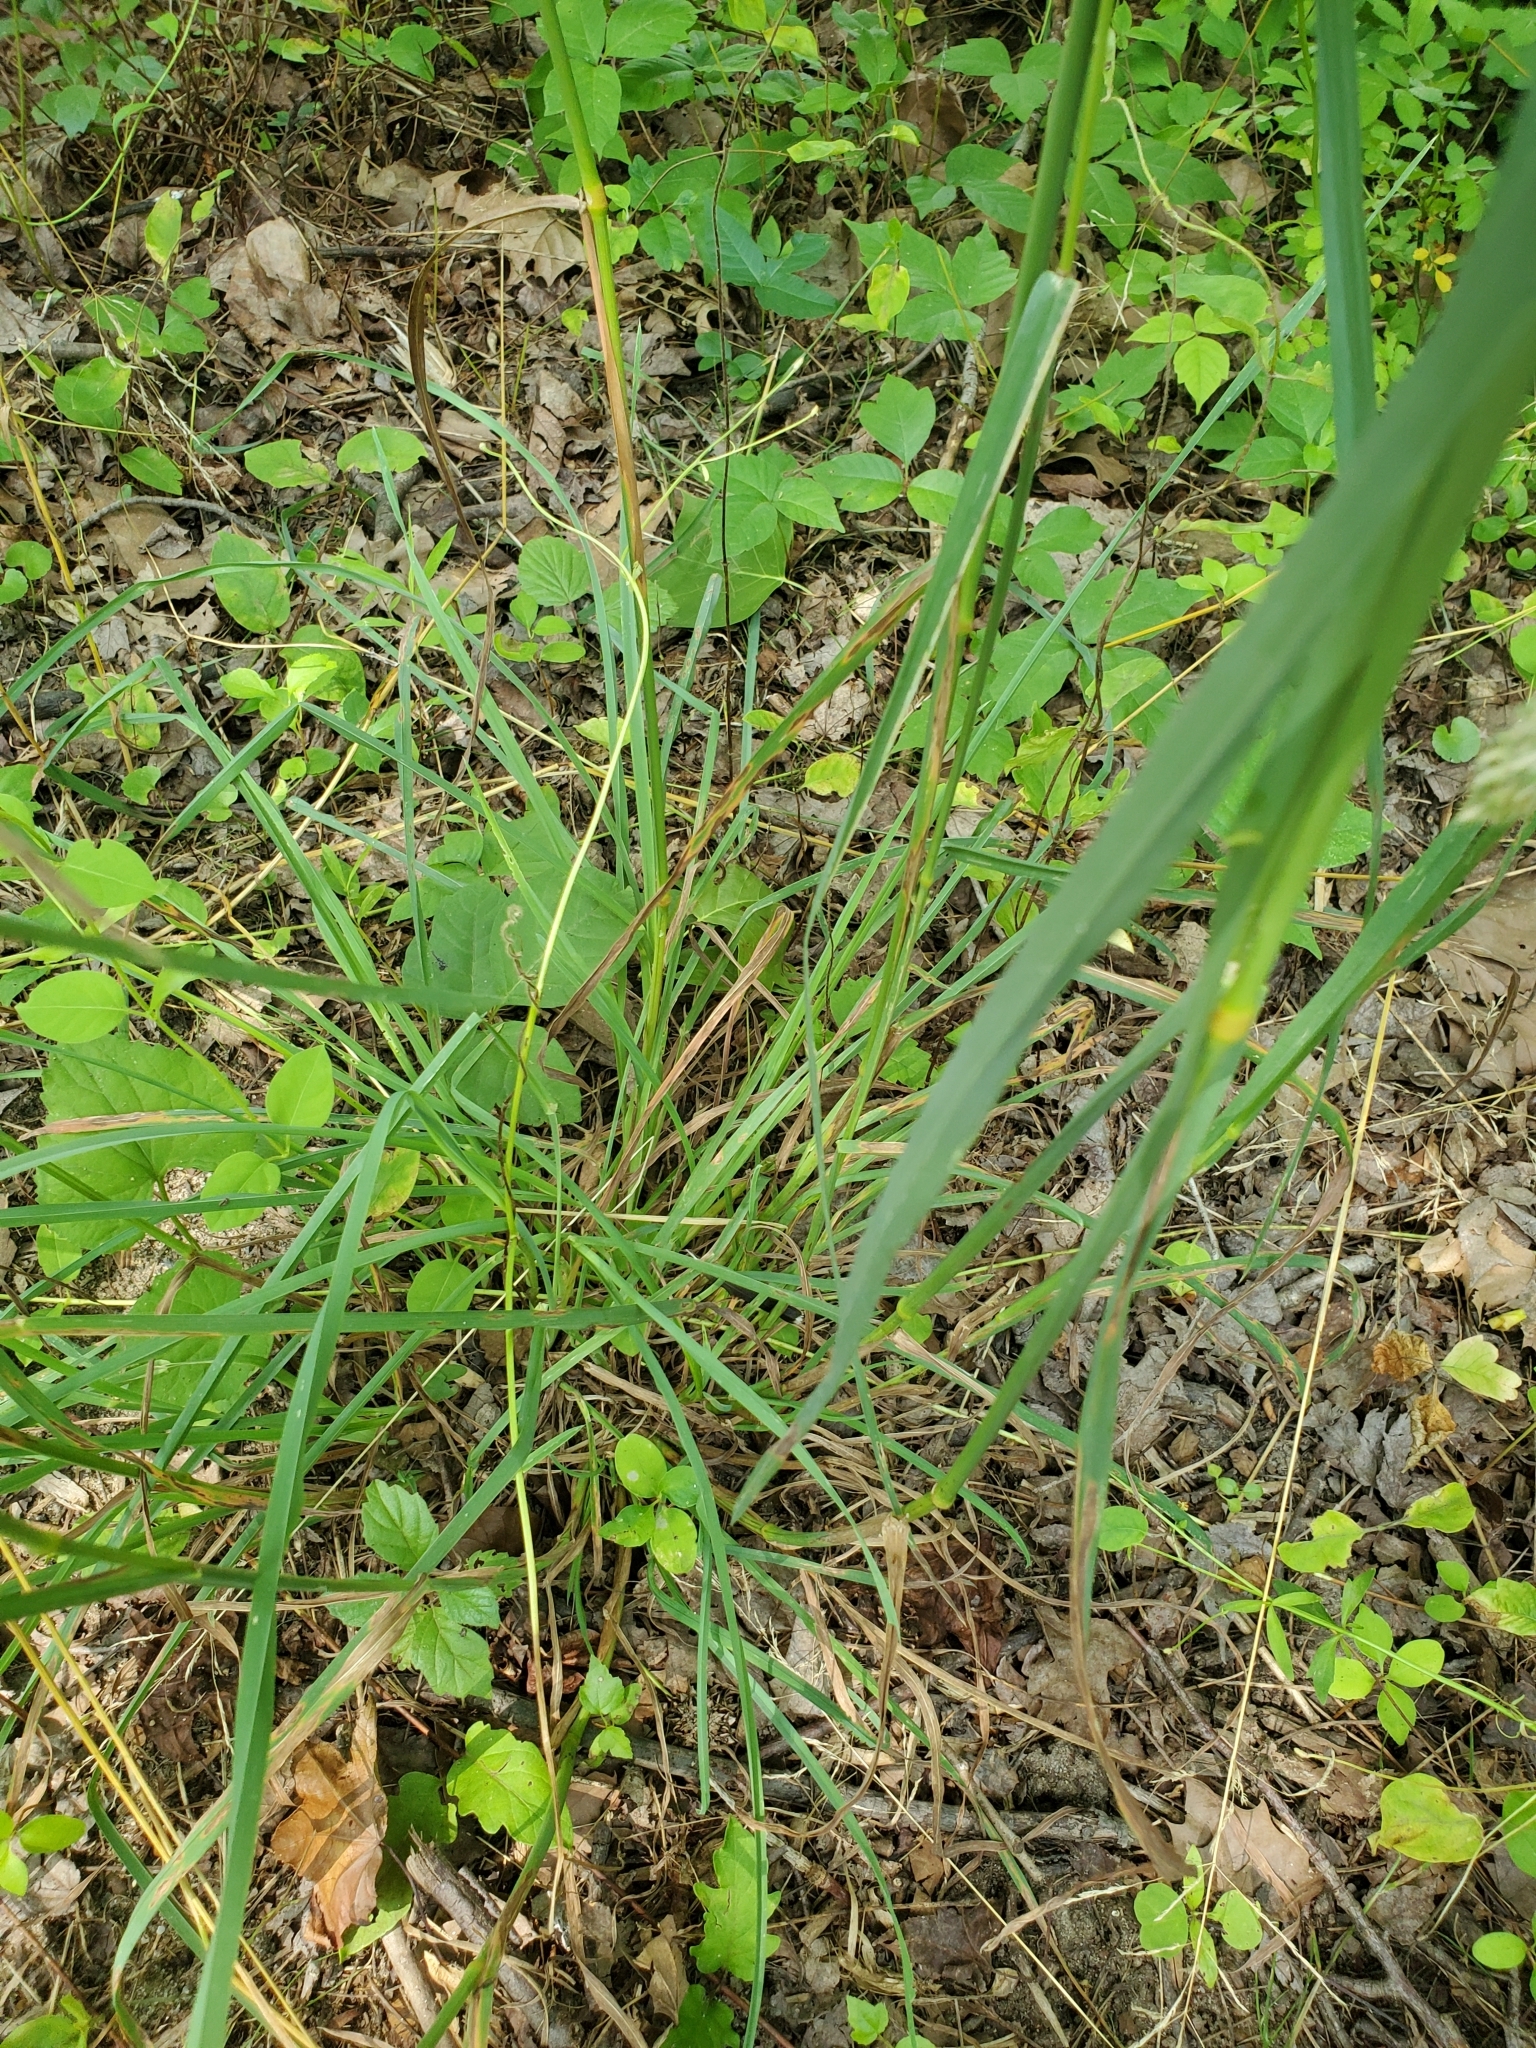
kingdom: Plantae
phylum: Tracheophyta
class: Liliopsida
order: Poales
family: Poaceae
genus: Dactylis
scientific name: Dactylis glomerata
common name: Orchardgrass
